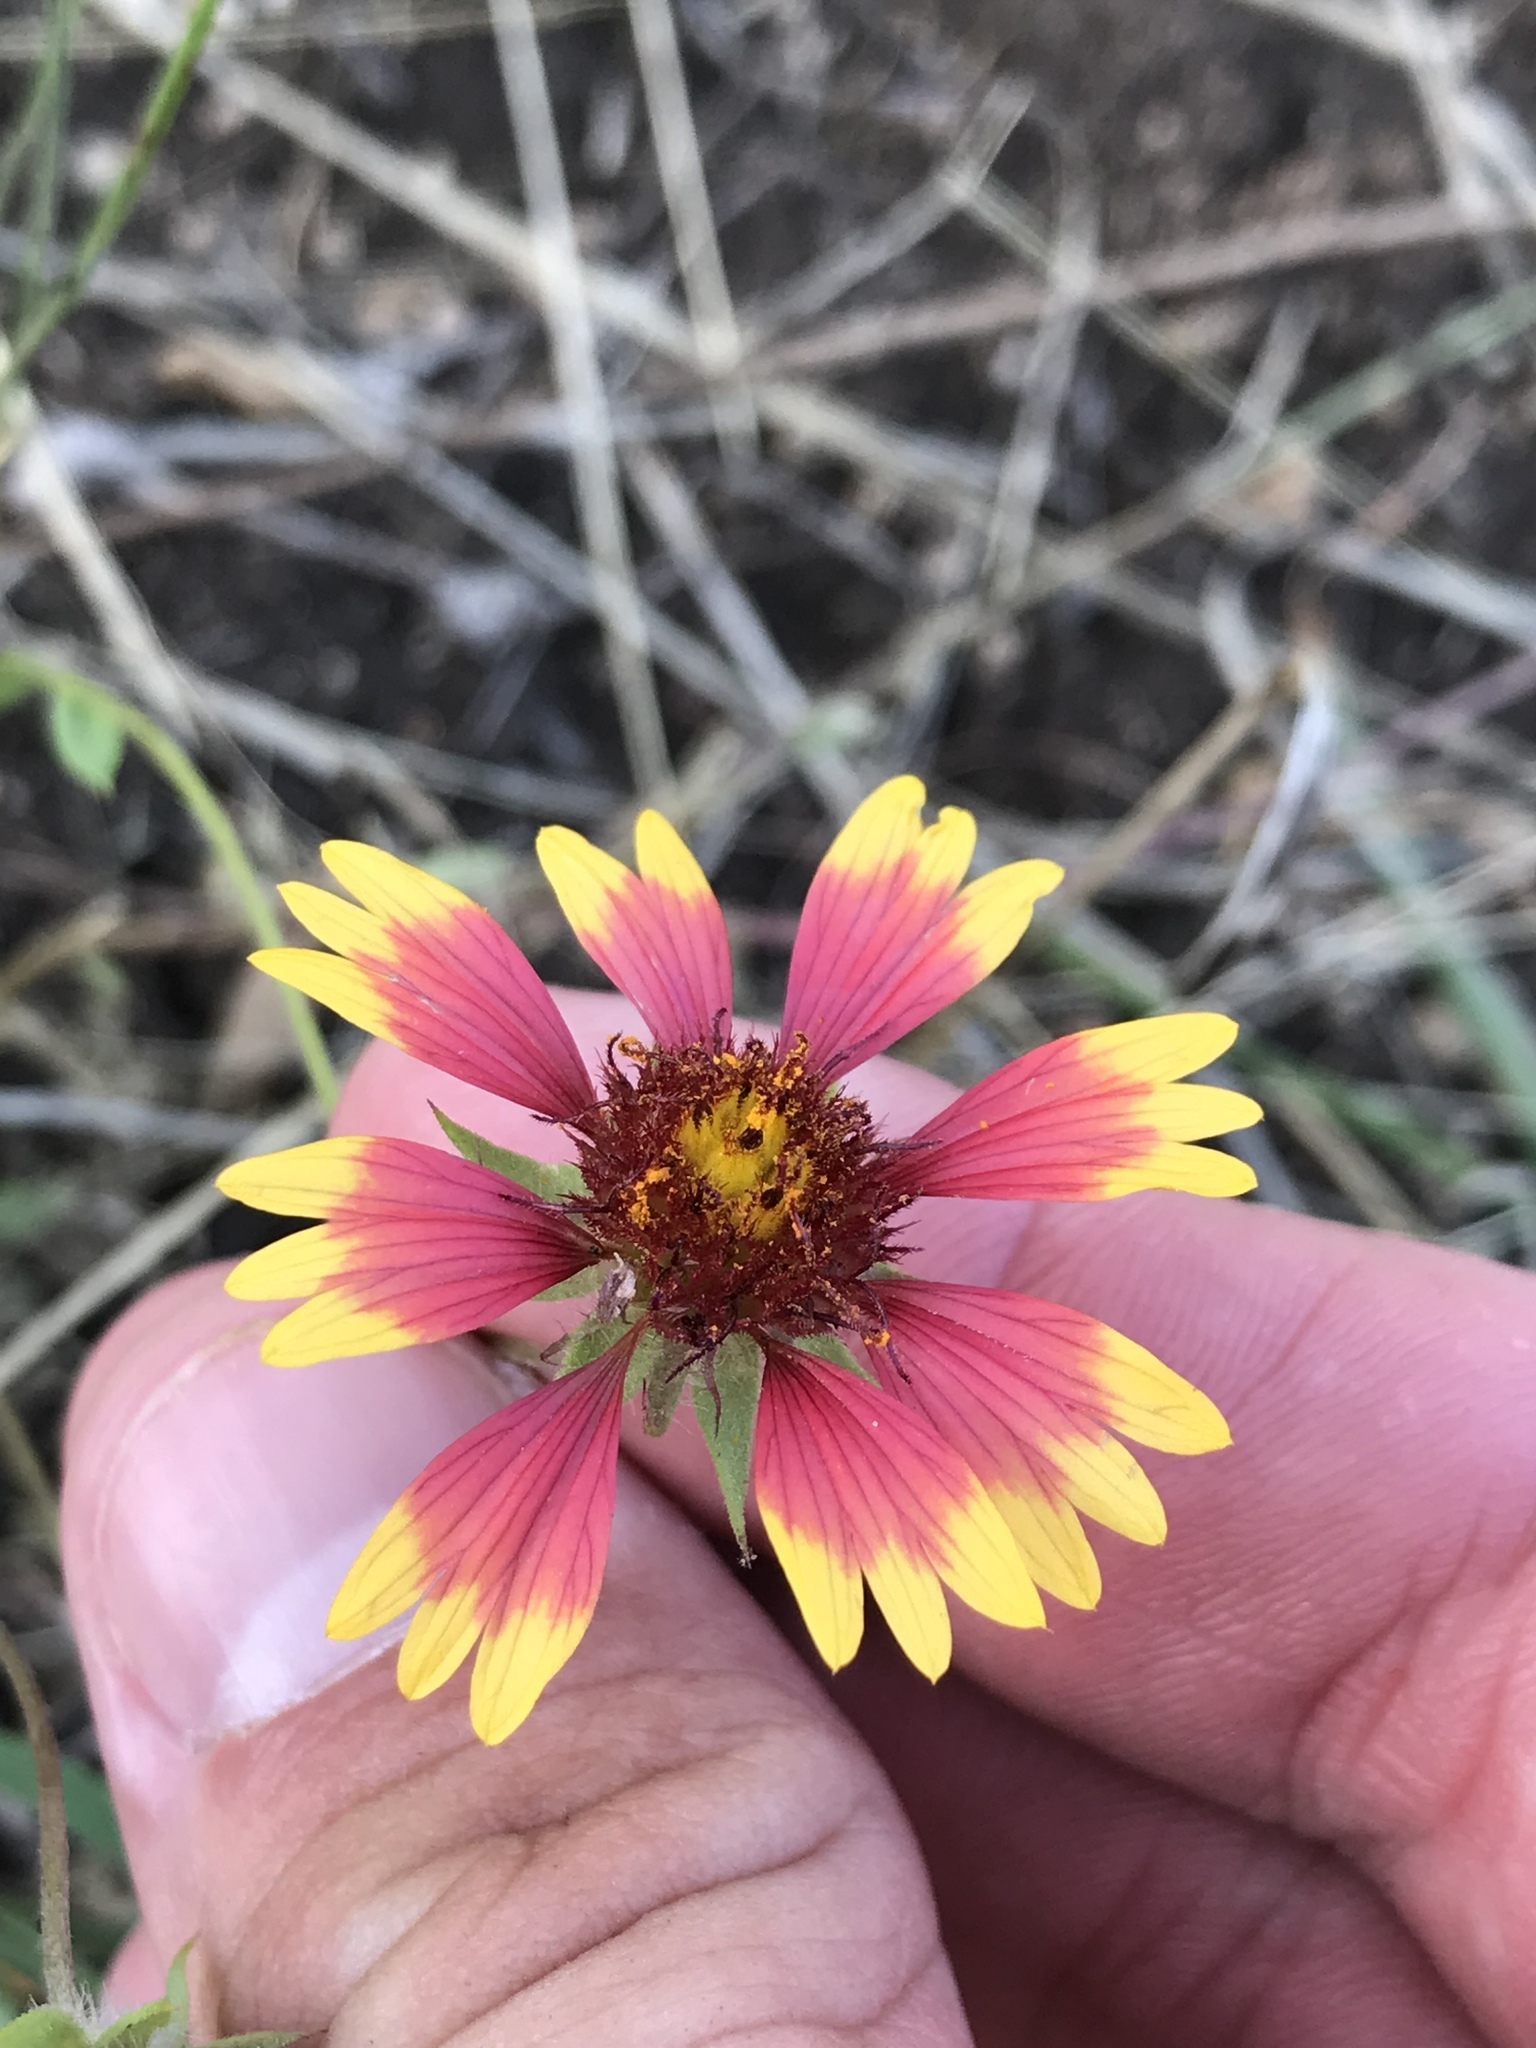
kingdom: Plantae
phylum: Tracheophyta
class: Magnoliopsida
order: Asterales
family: Asteraceae
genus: Gaillardia
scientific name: Gaillardia pulchella
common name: Firewheel
